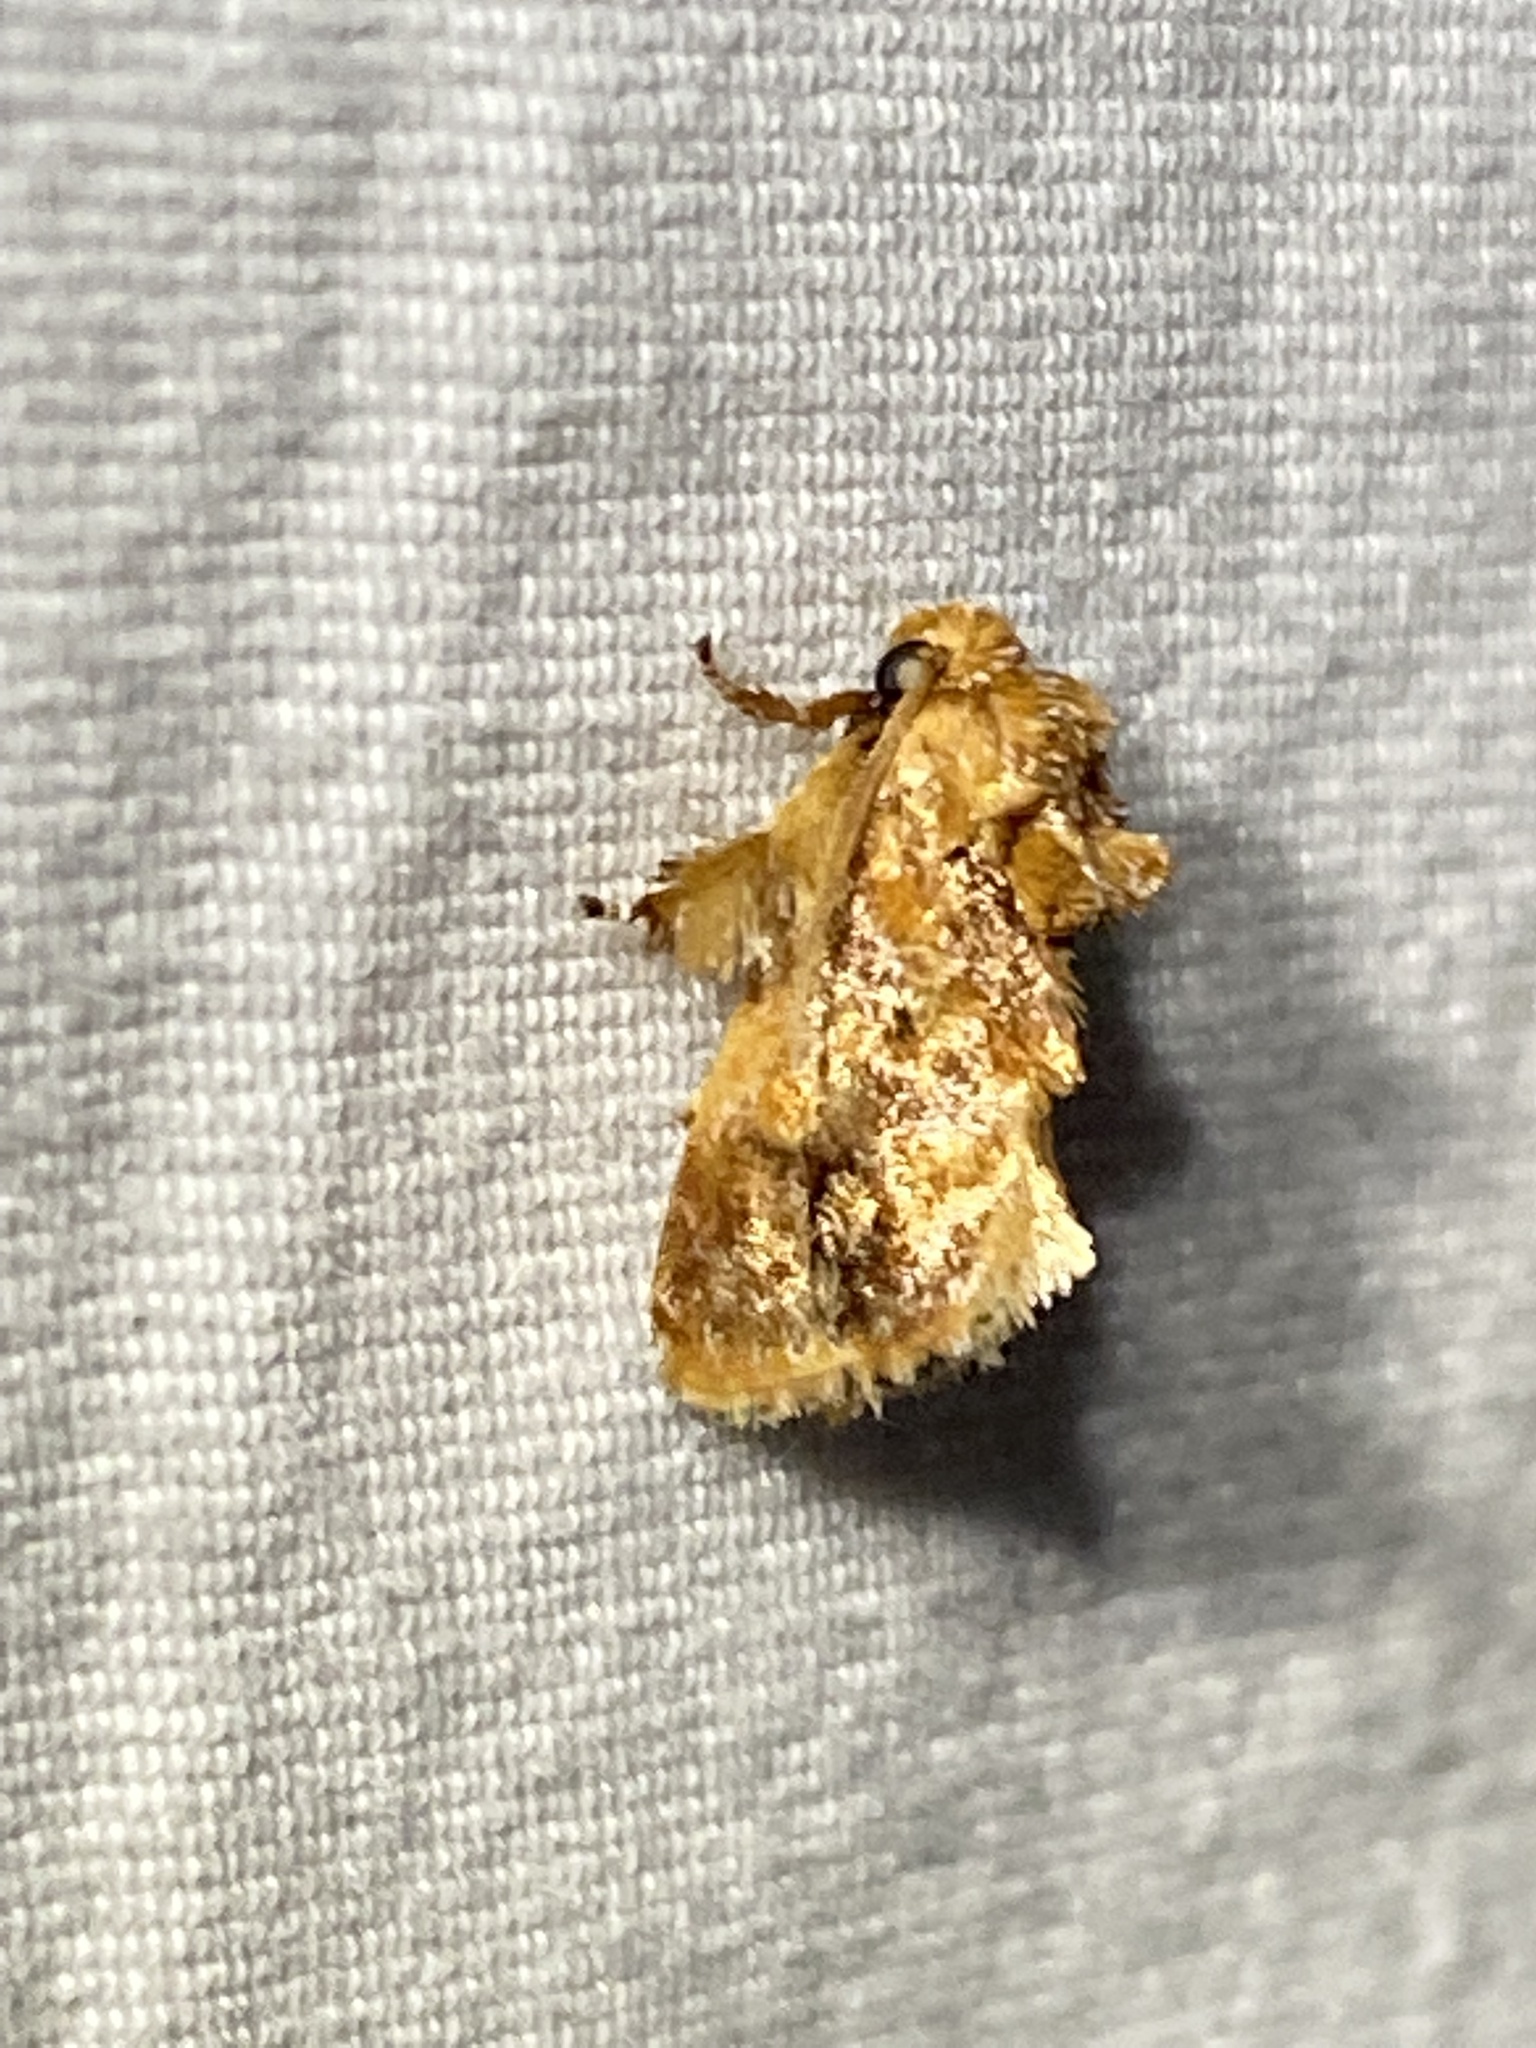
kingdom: Animalia
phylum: Arthropoda
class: Insecta
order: Lepidoptera
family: Limacodidae
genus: Isochaetes
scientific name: Isochaetes beutenmuelleri
